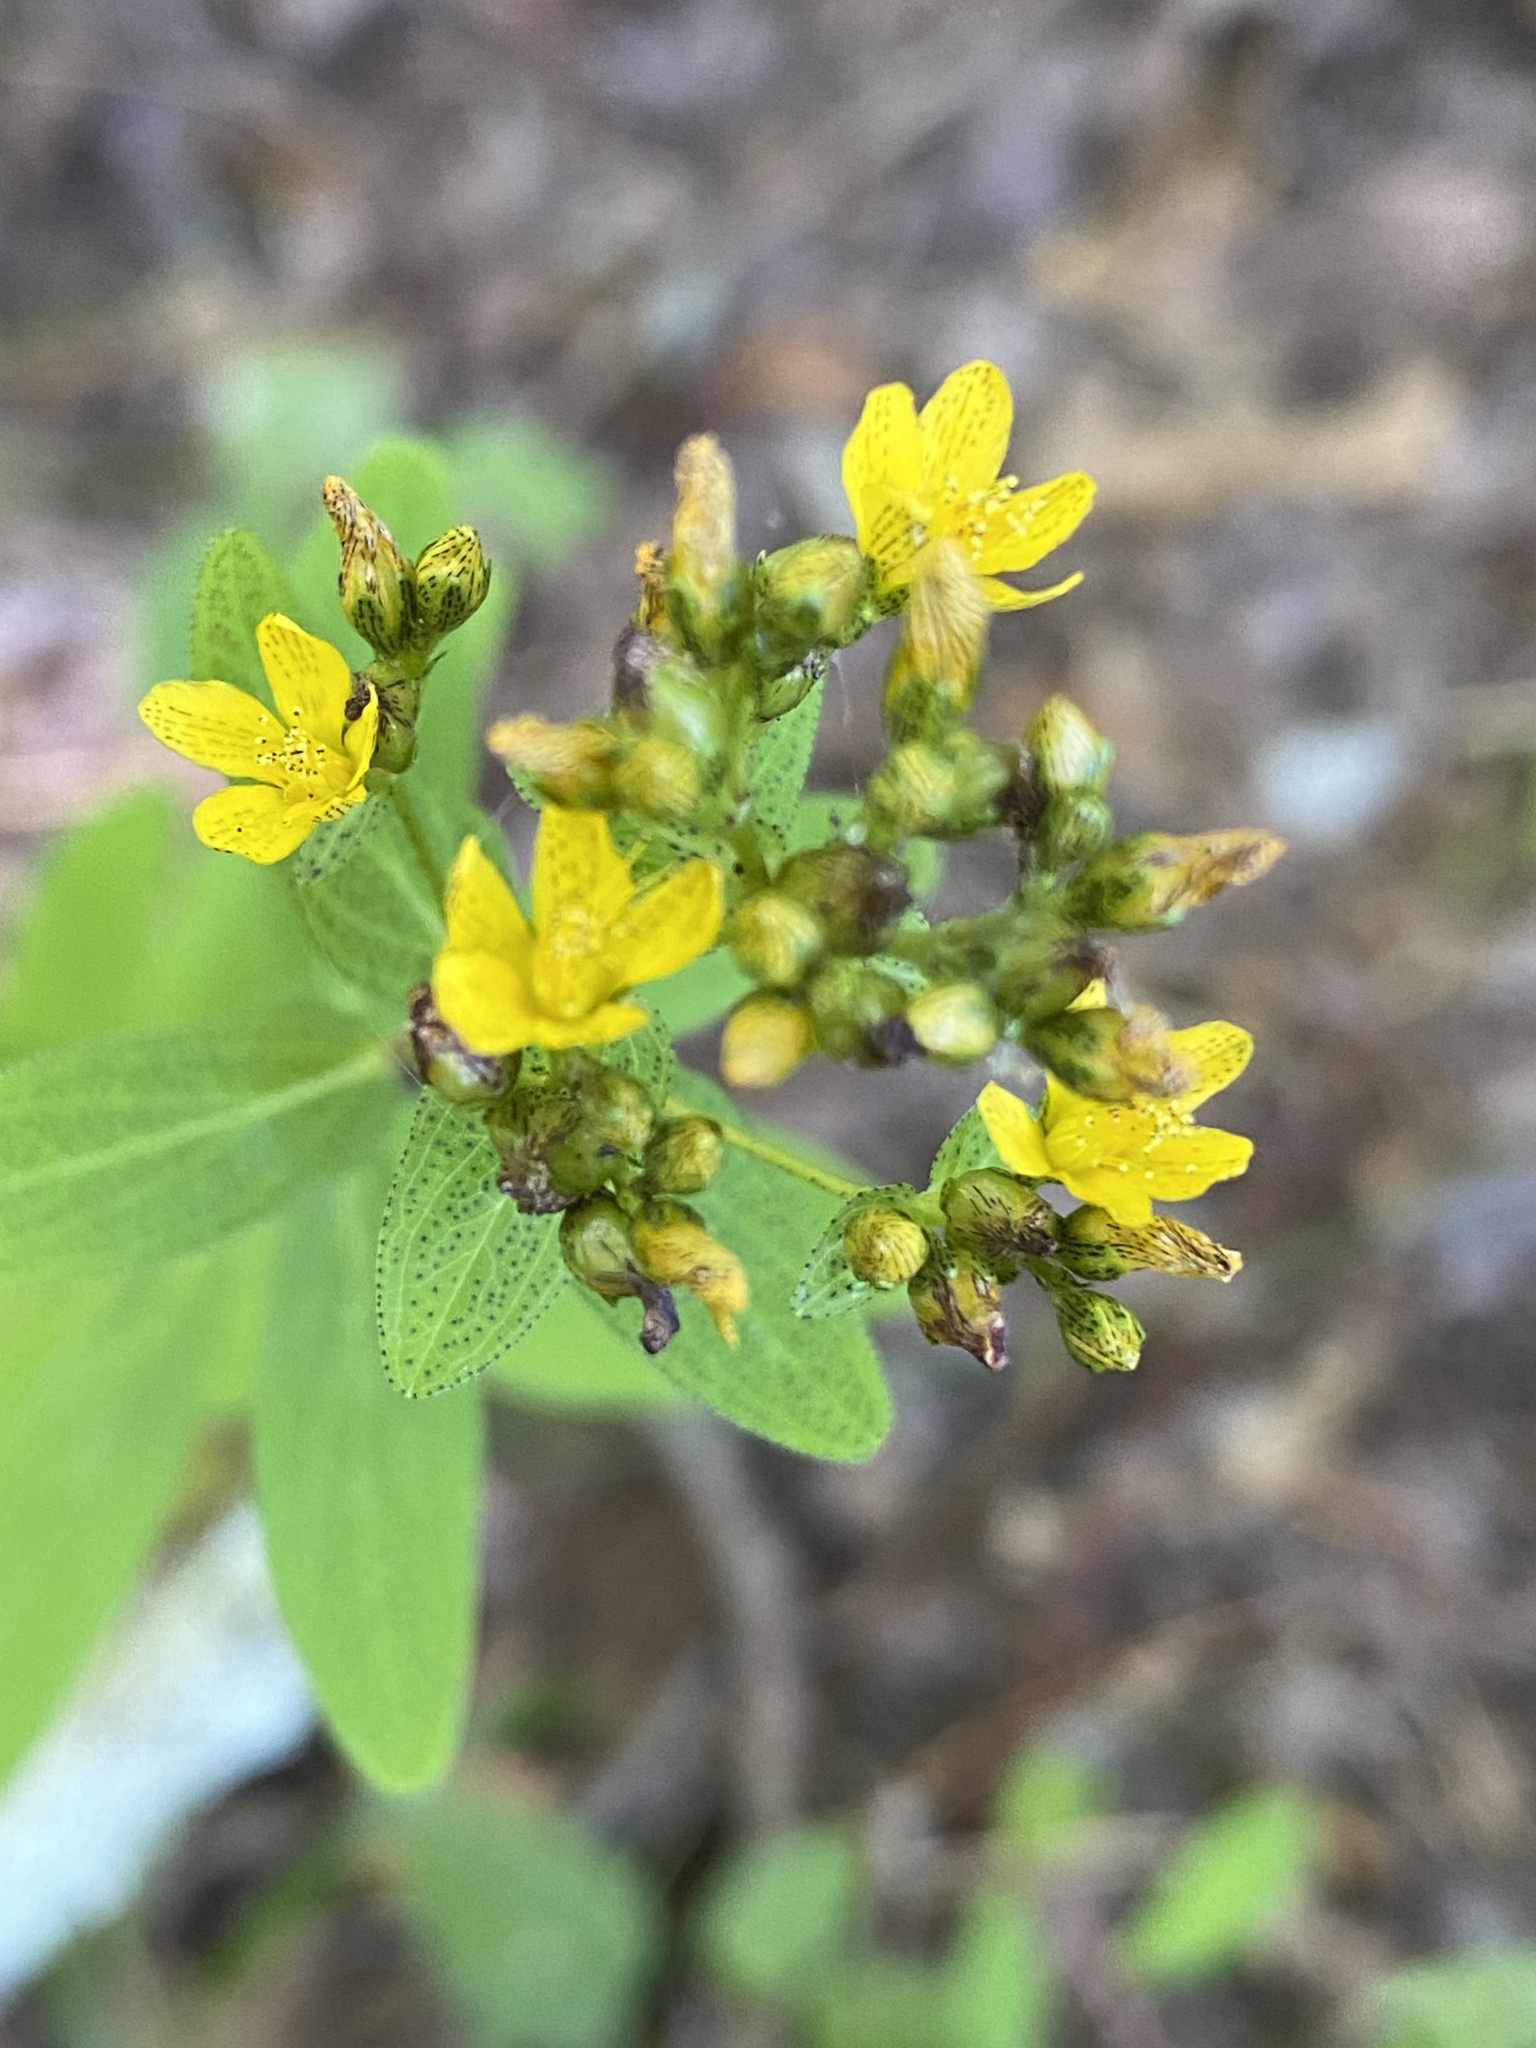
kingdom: Plantae
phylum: Tracheophyta
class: Magnoliopsida
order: Malpighiales
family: Hypericaceae
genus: Hypericum
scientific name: Hypericum punctatum
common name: Spotted st. john's-wort
